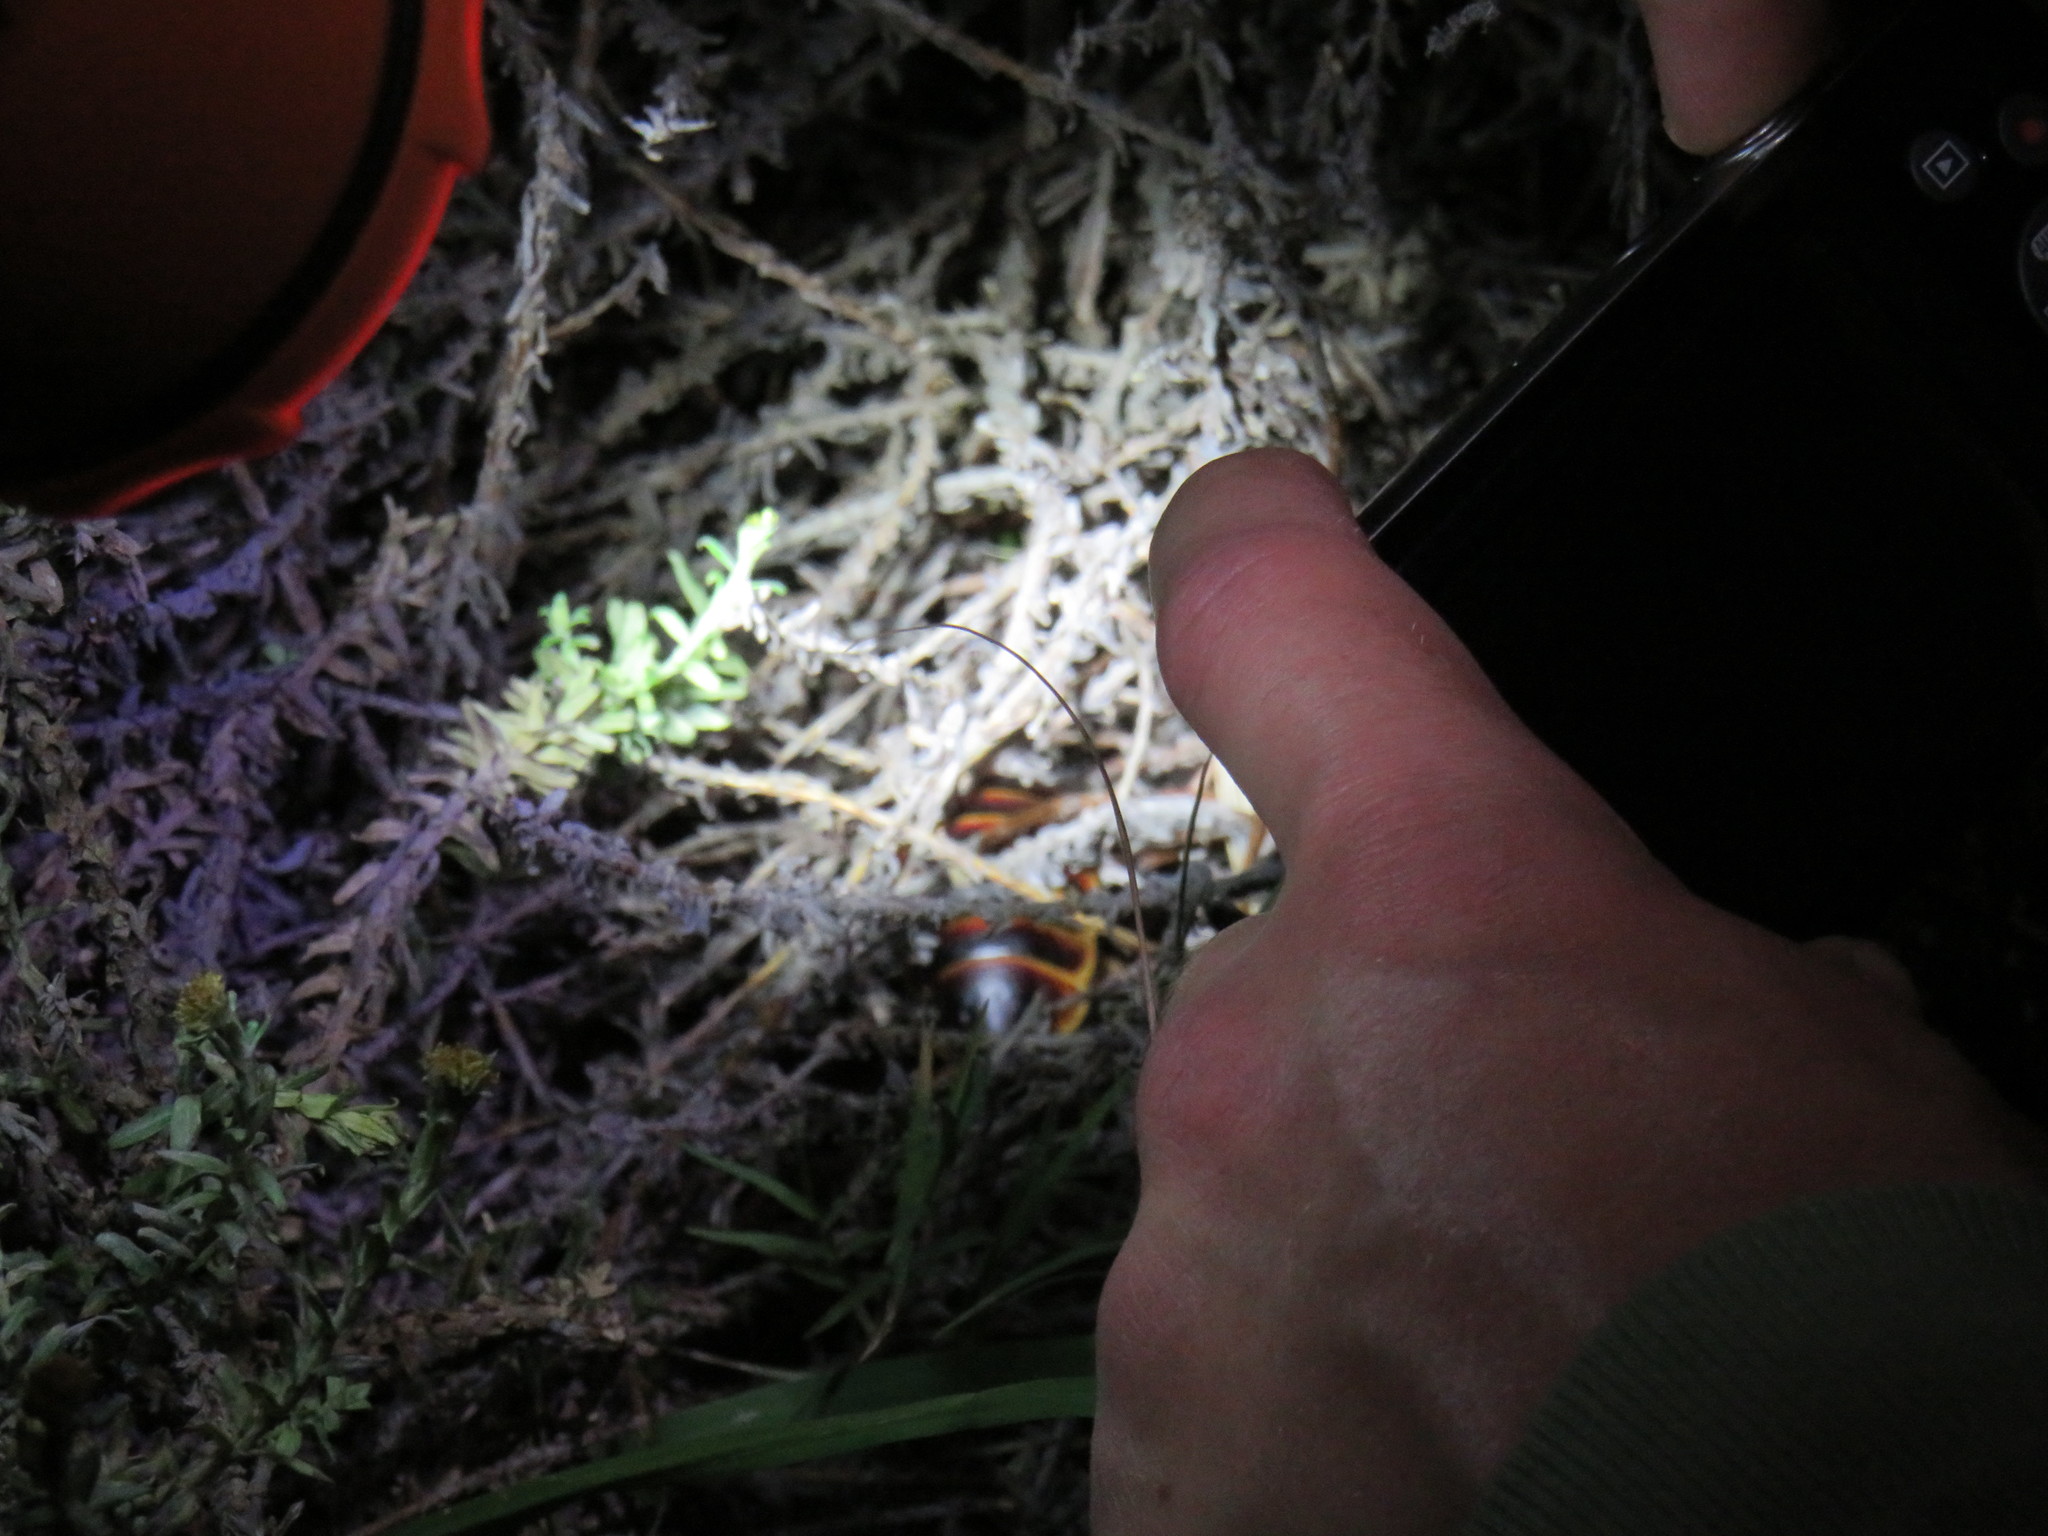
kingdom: Animalia
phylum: Arthropoda
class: Insecta
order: Blattodea
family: Blaberidae
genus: Aptera
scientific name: Aptera fusca
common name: Cape mountain cockroach
